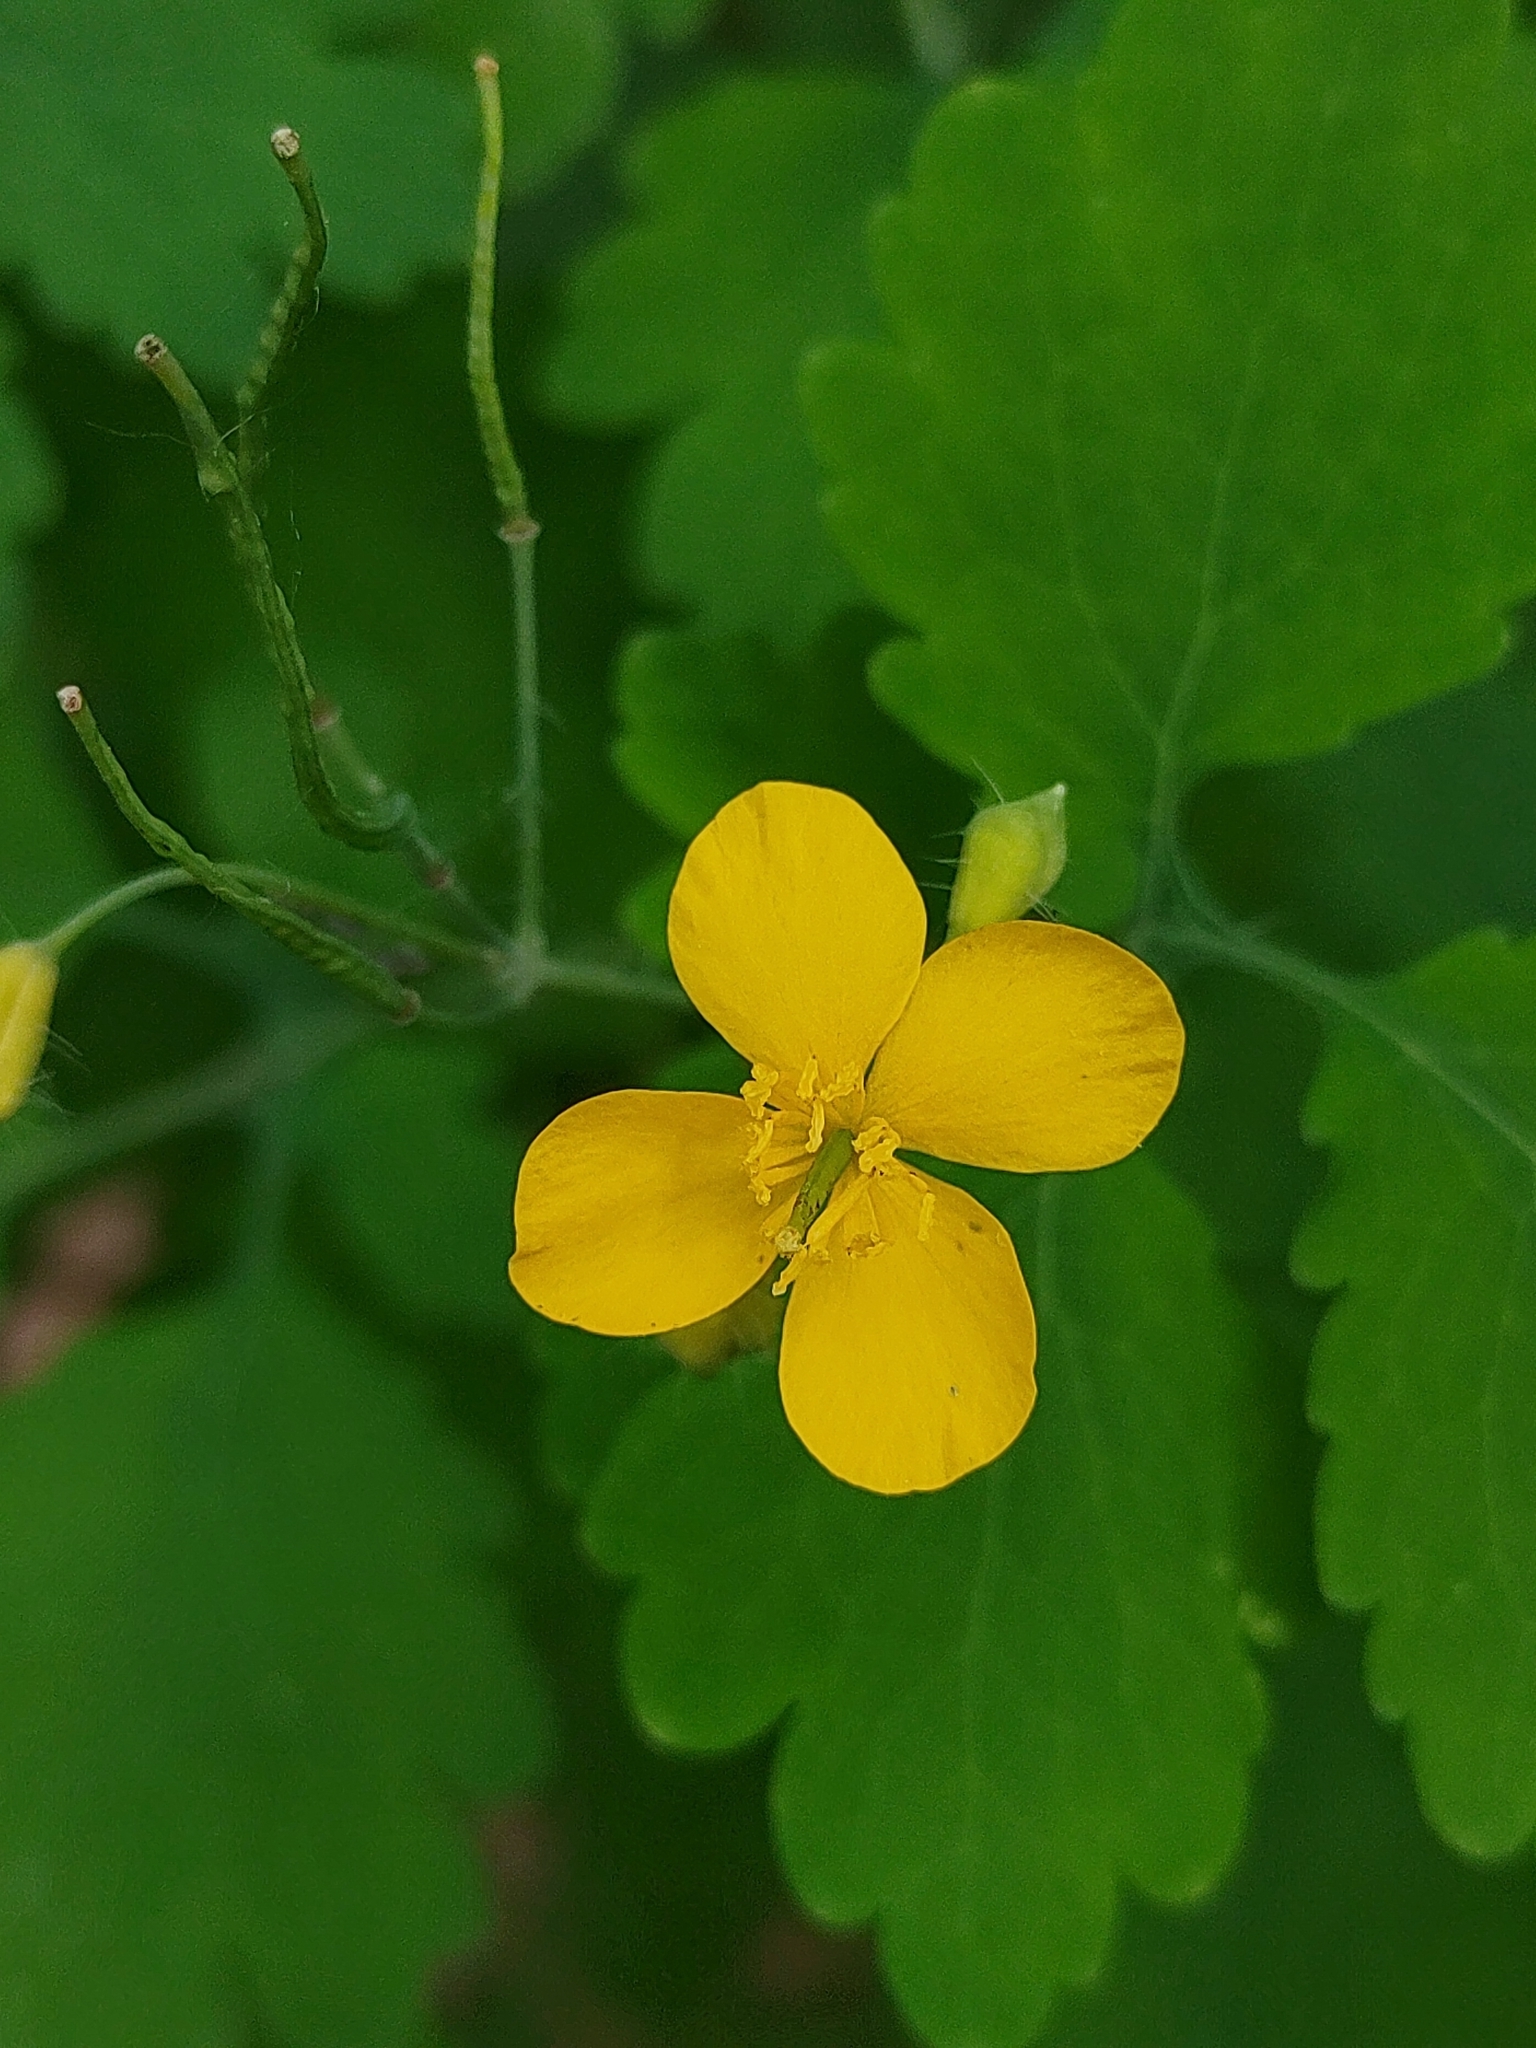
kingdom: Plantae
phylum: Tracheophyta
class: Magnoliopsida
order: Ranunculales
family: Papaveraceae
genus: Chelidonium
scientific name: Chelidonium majus
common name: Greater celandine
